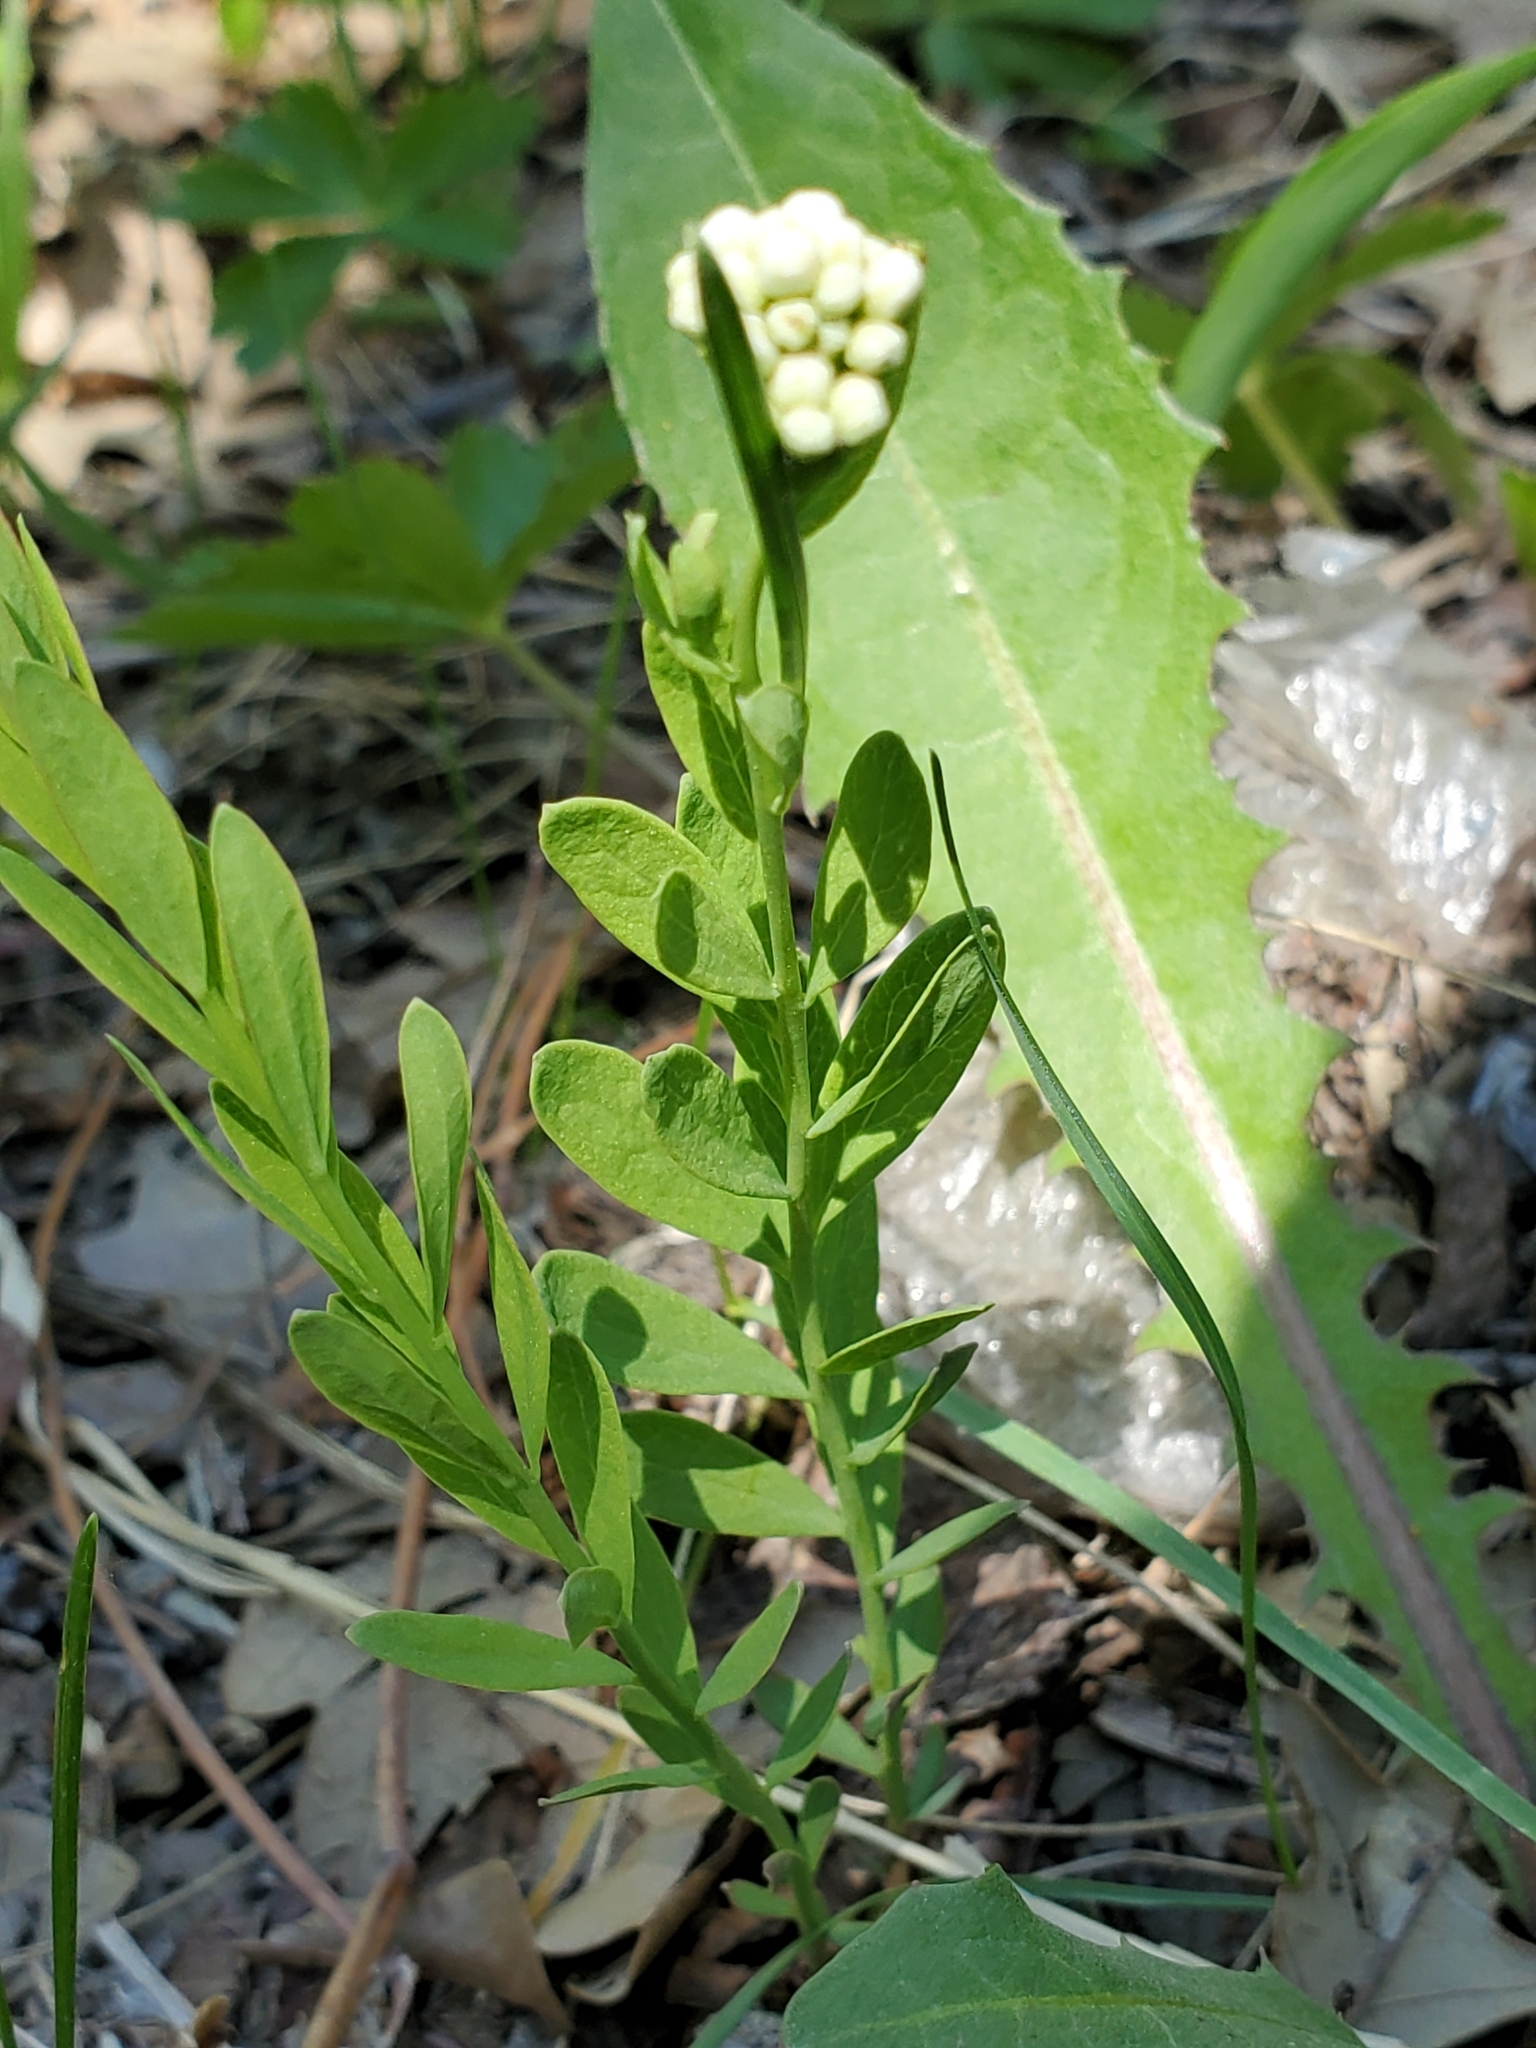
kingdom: Plantae
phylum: Tracheophyta
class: Magnoliopsida
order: Santalales
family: Comandraceae
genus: Comandra
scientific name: Comandra umbellata
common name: Bastard toadflax
